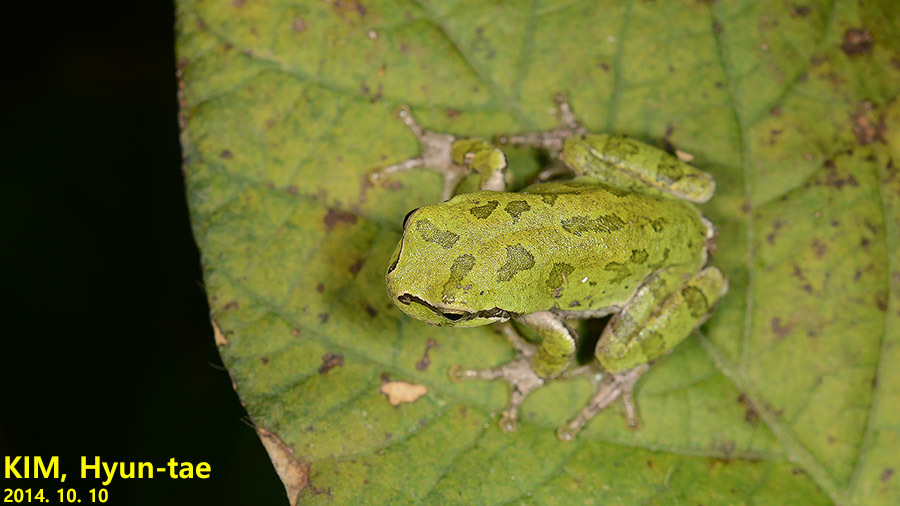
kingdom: Animalia
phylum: Chordata
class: Amphibia
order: Anura
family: Hylidae
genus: Dryophytes
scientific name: Dryophytes japonicus
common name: Japanese treefrog
